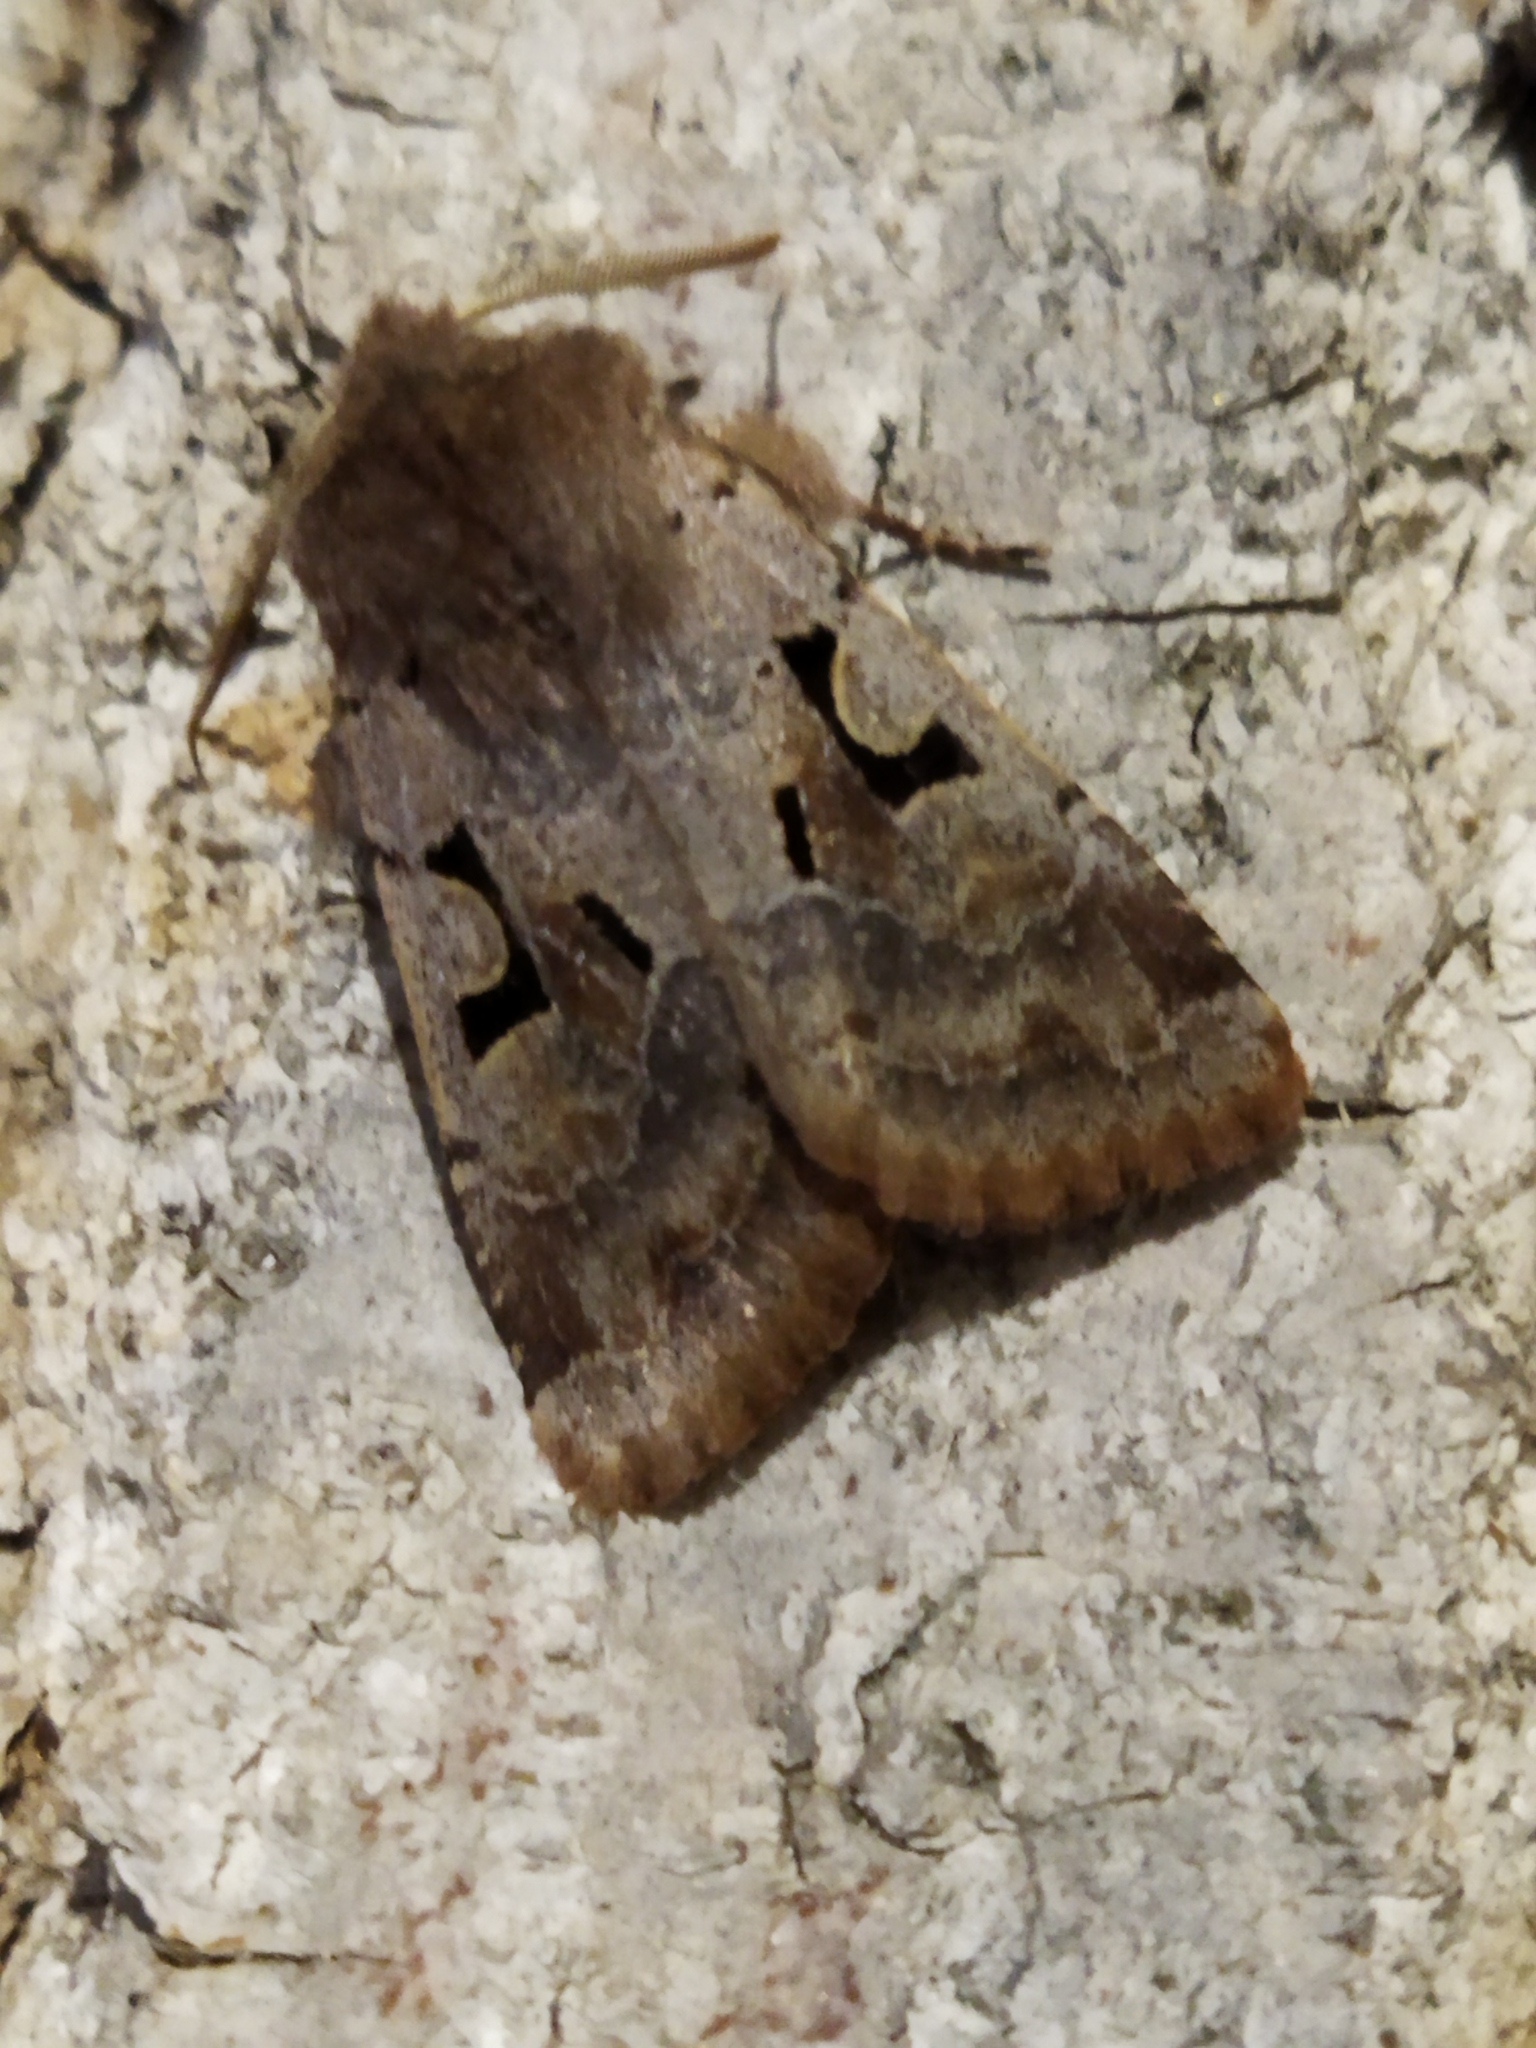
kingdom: Animalia
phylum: Arthropoda
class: Insecta
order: Lepidoptera
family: Noctuidae
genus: Orthosia
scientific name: Orthosia gothica
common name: Hebrew character
